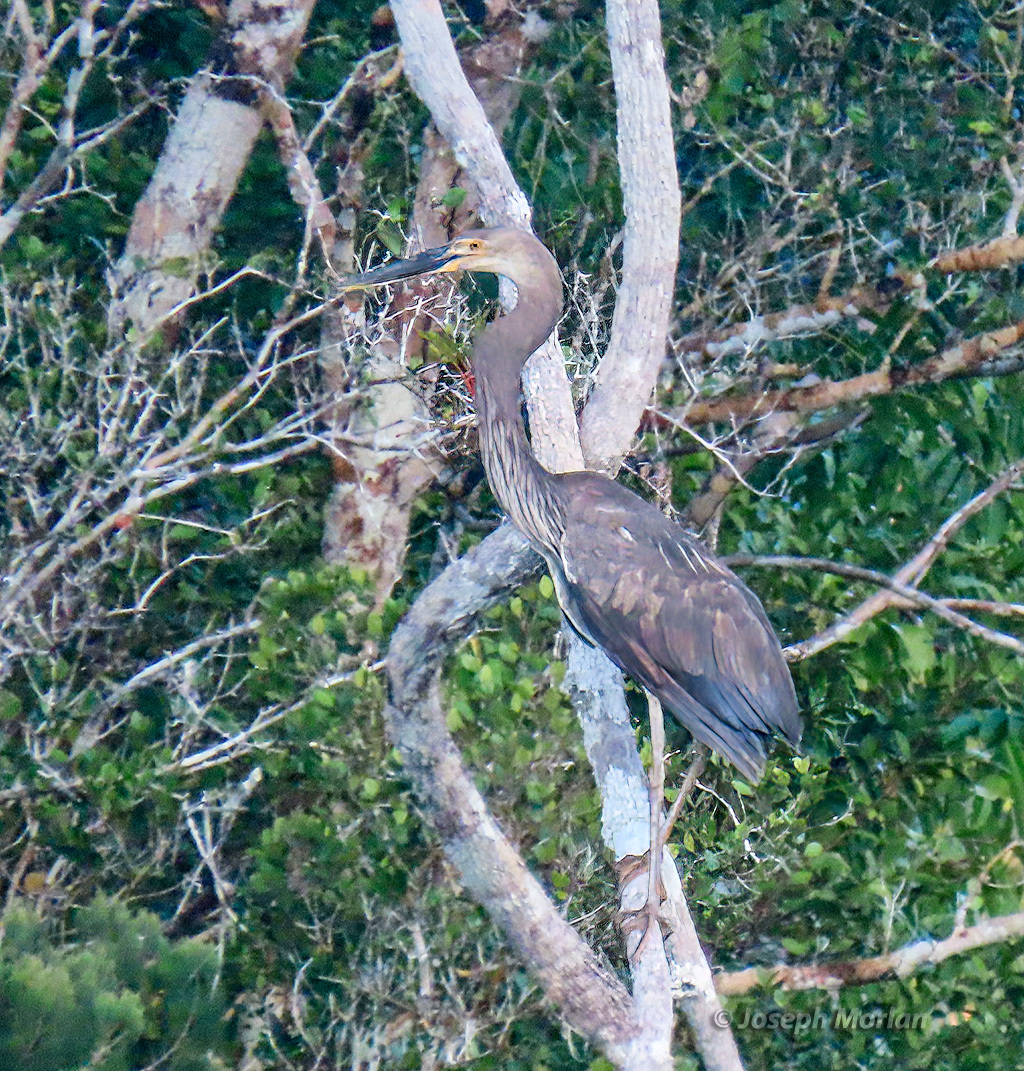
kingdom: Animalia
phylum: Chordata
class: Aves
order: Pelecaniformes
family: Ardeidae
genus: Ardea
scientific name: Ardea sumatrana
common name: Great-billed heron
